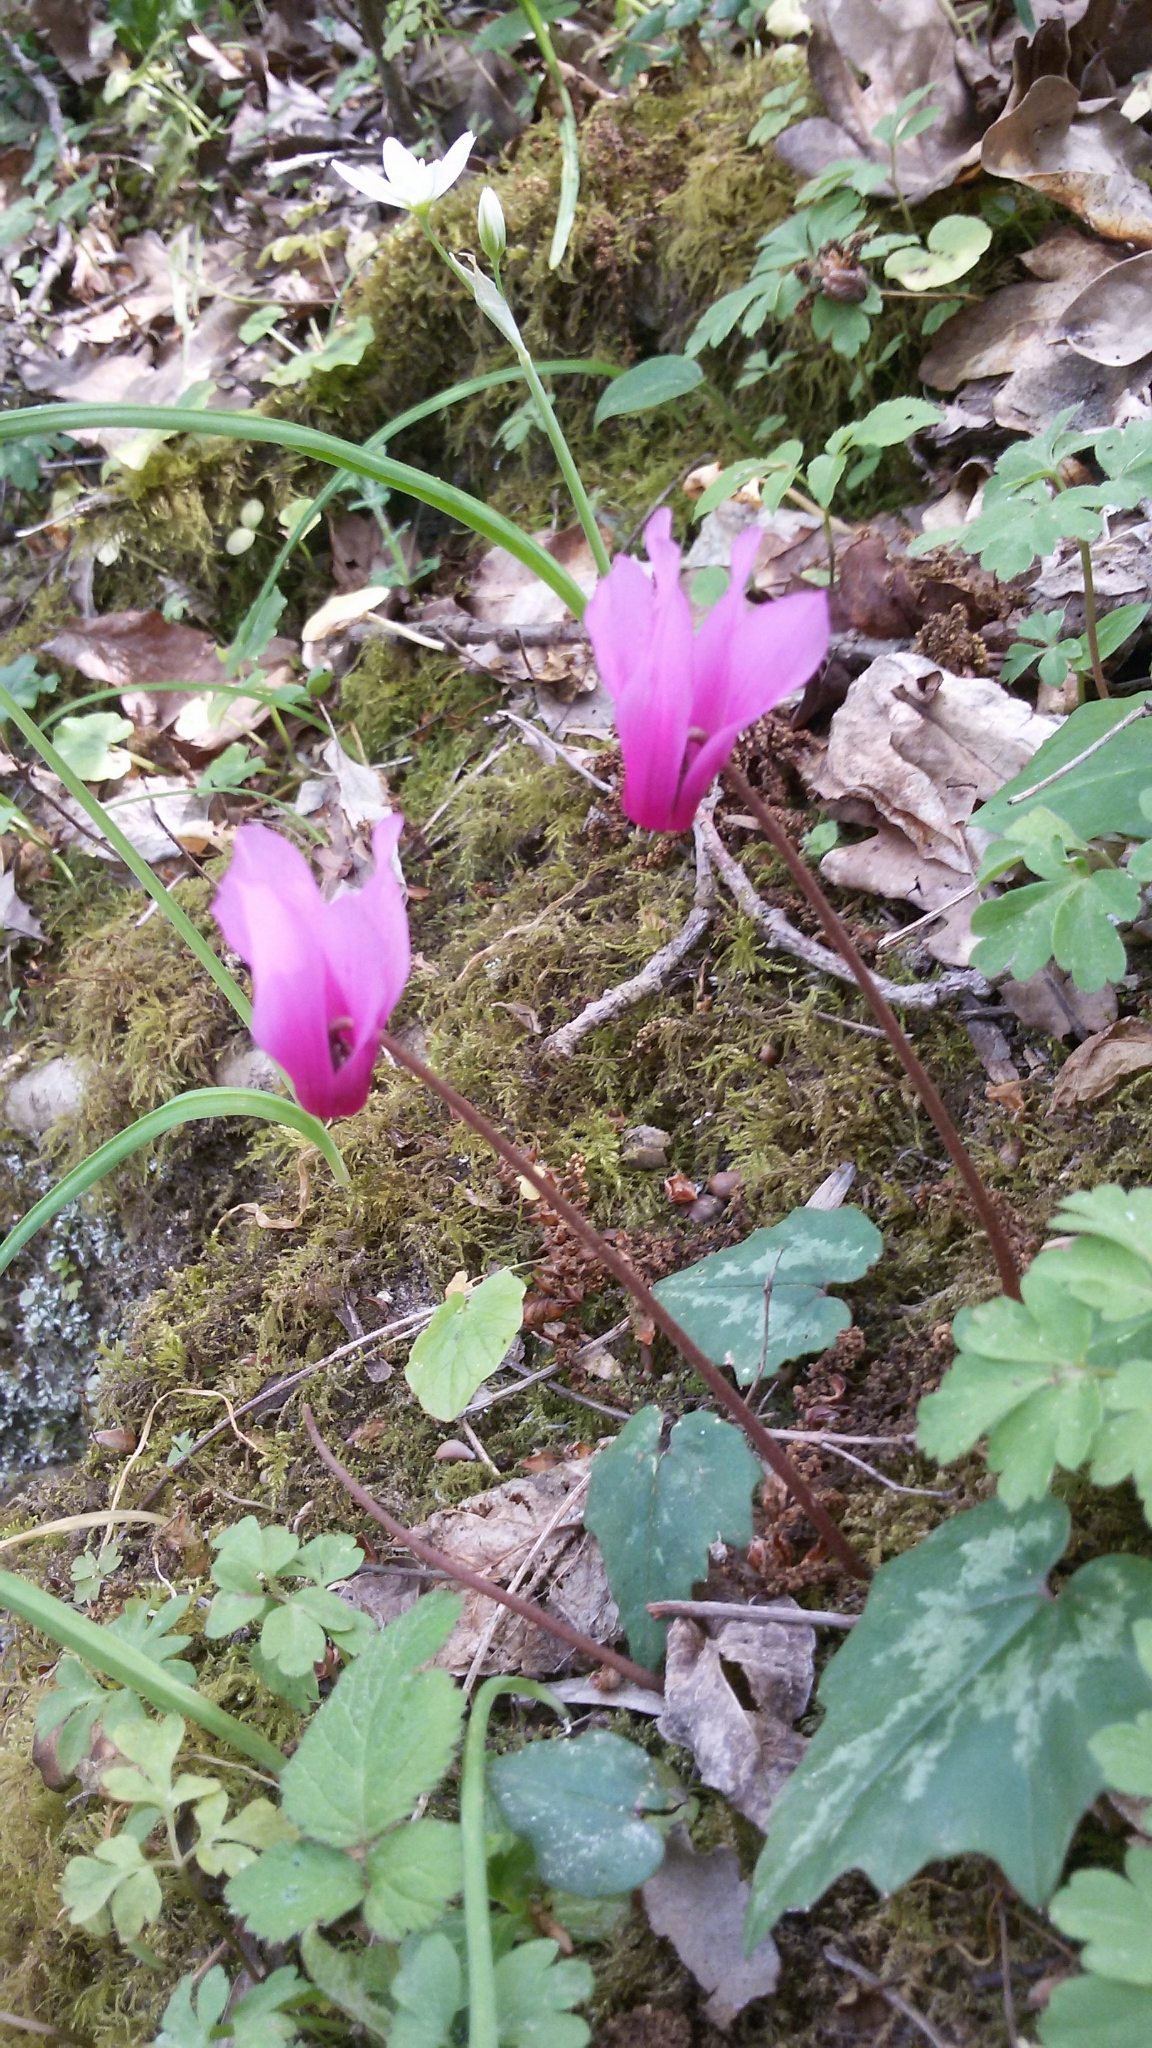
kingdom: Plantae
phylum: Tracheophyta
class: Magnoliopsida
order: Ericales
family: Primulaceae
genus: Cyclamen
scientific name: Cyclamen repandum
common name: Spring sowbread
